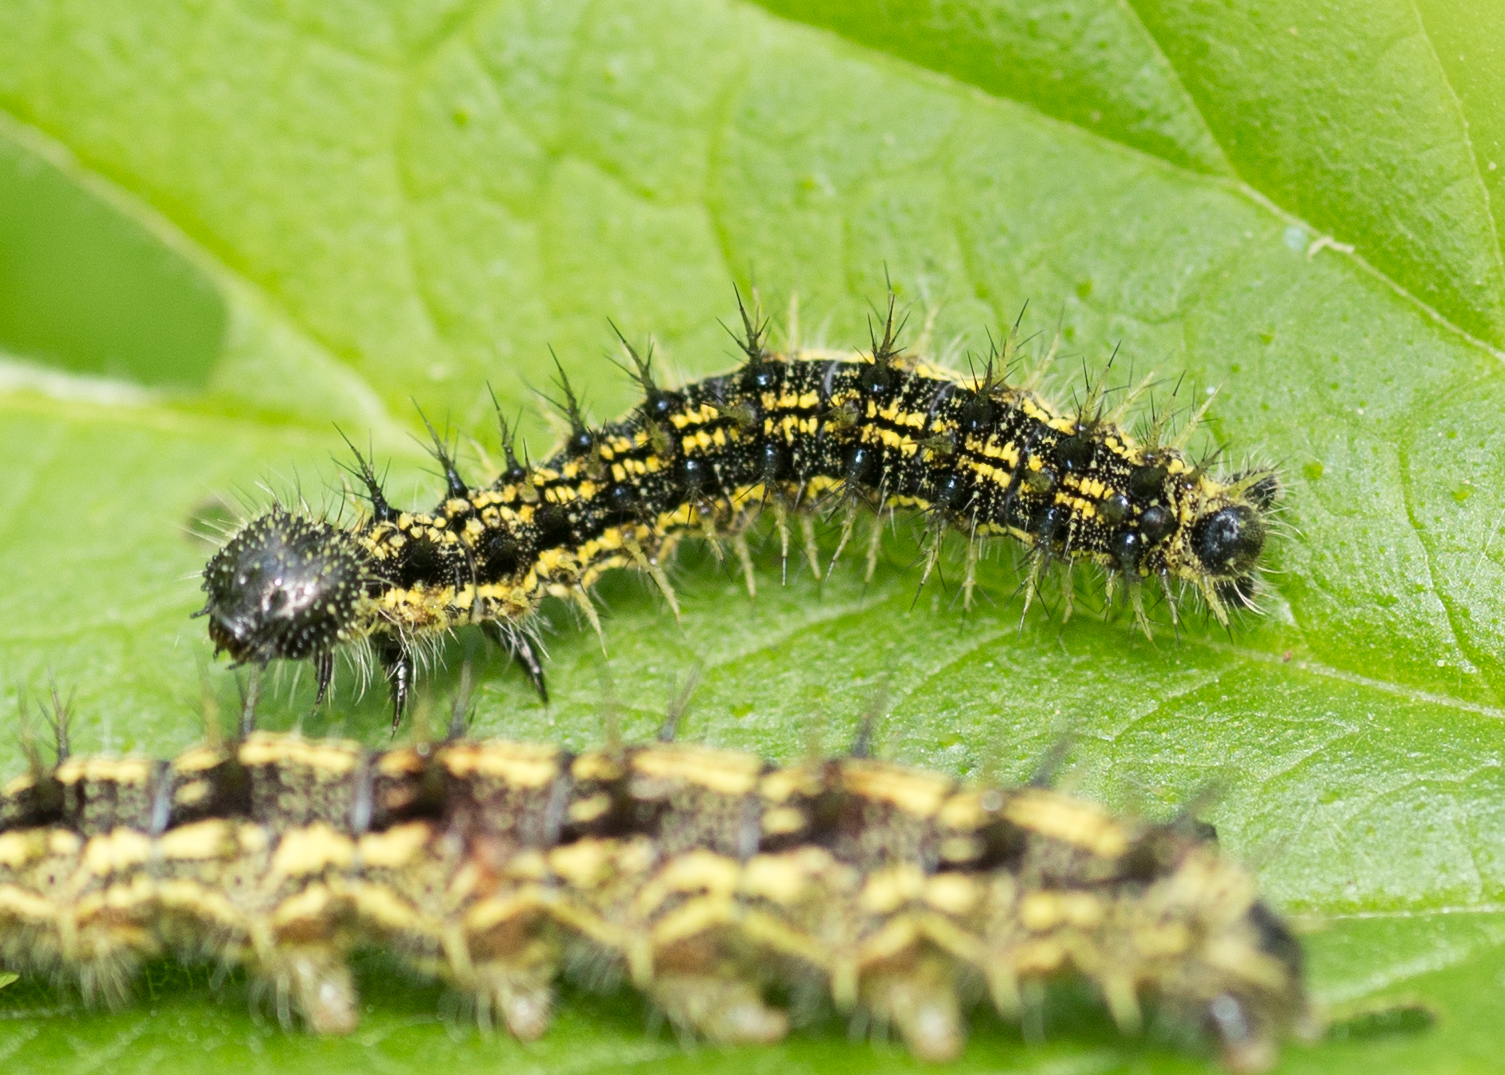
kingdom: Animalia
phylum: Arthropoda
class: Insecta
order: Lepidoptera
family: Nymphalidae
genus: Aglais
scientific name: Aglais urticae
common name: Small tortoiseshell
